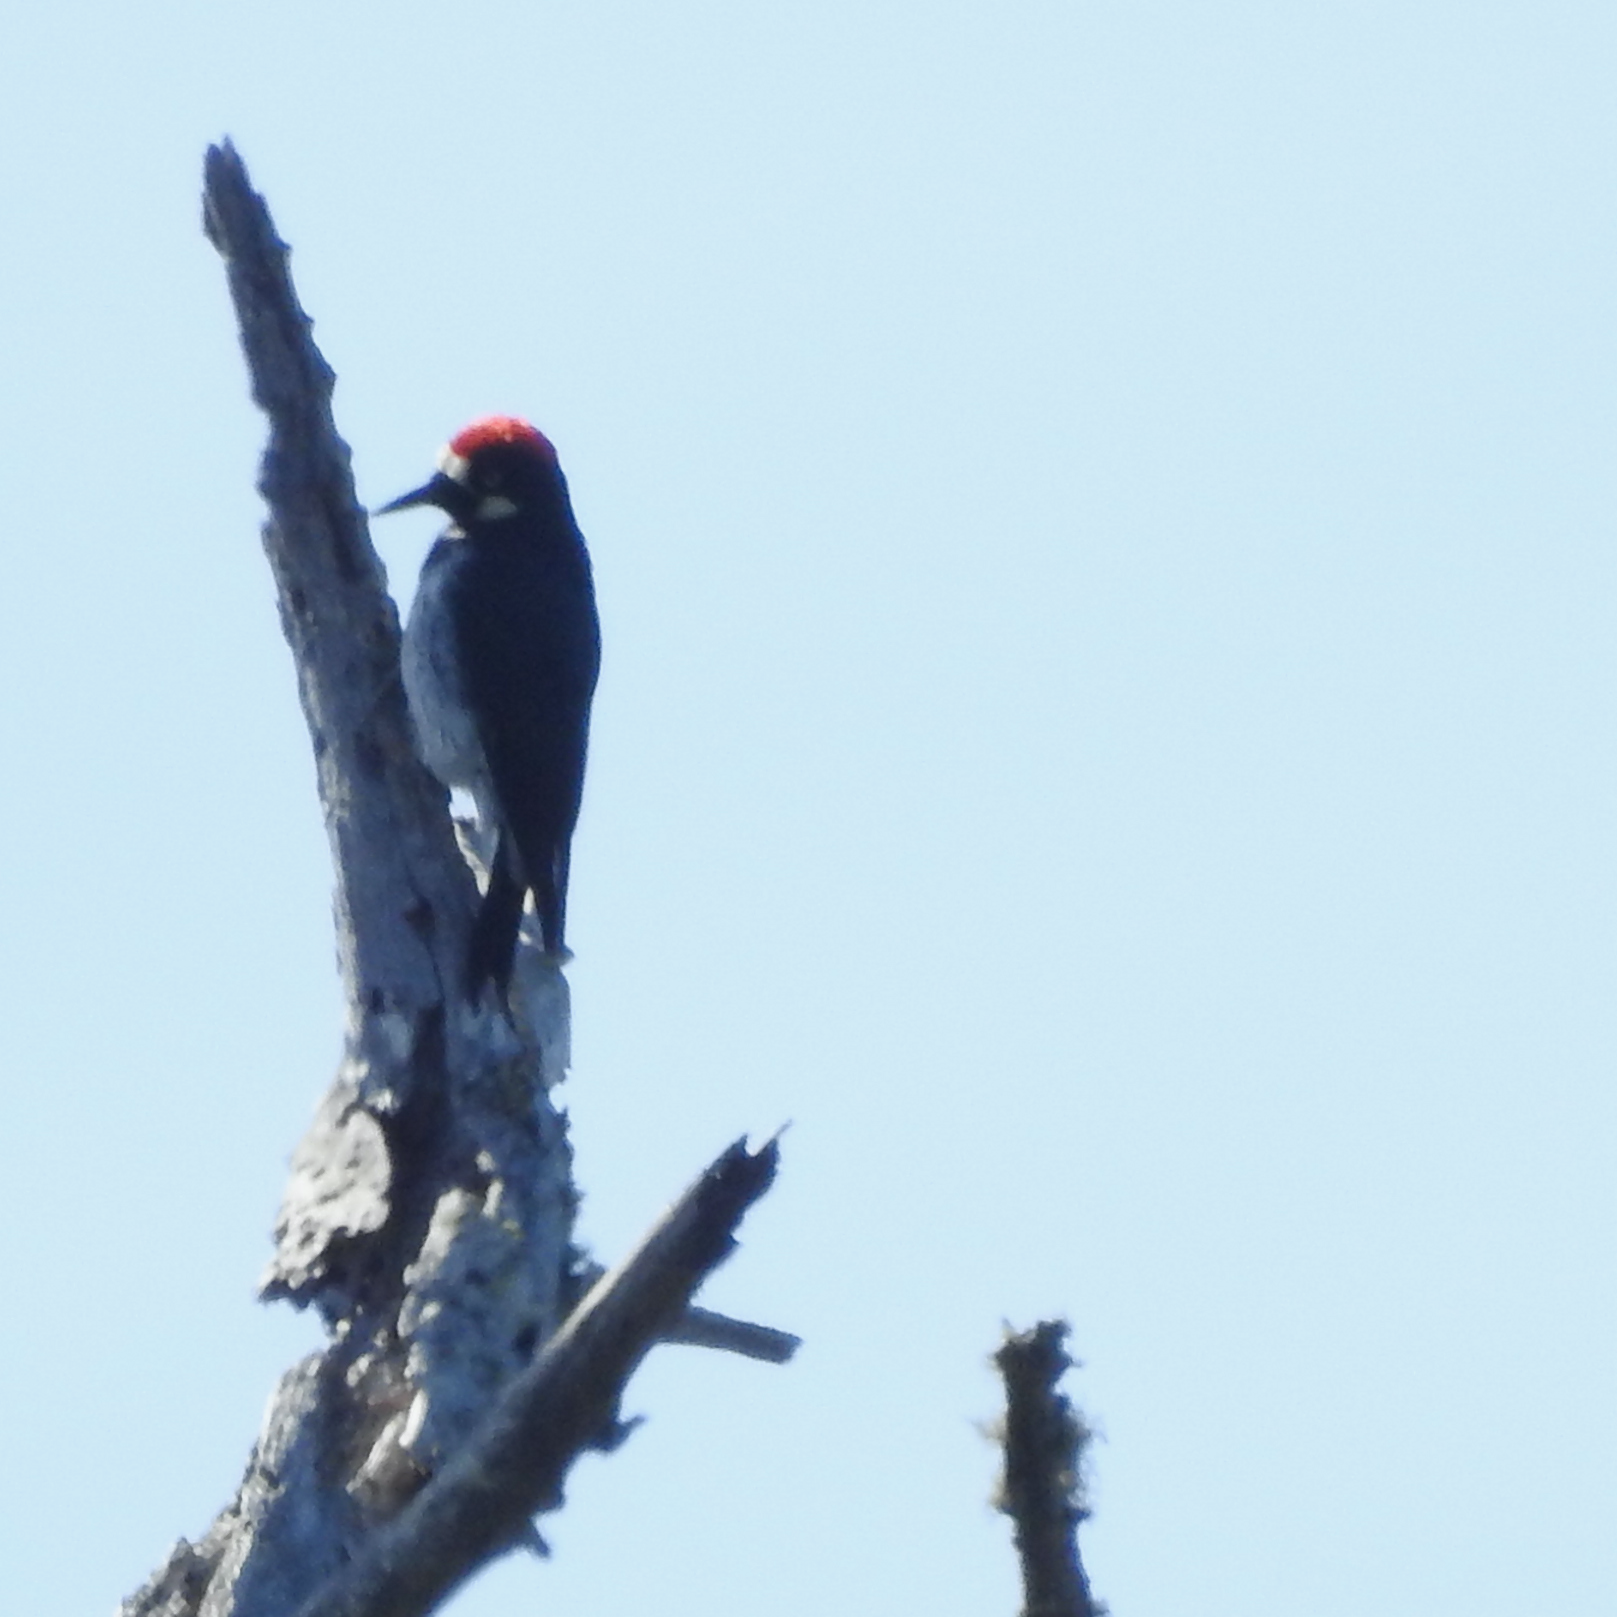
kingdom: Animalia
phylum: Chordata
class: Aves
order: Piciformes
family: Picidae
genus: Melanerpes
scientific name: Melanerpes formicivorus
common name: Acorn woodpecker
